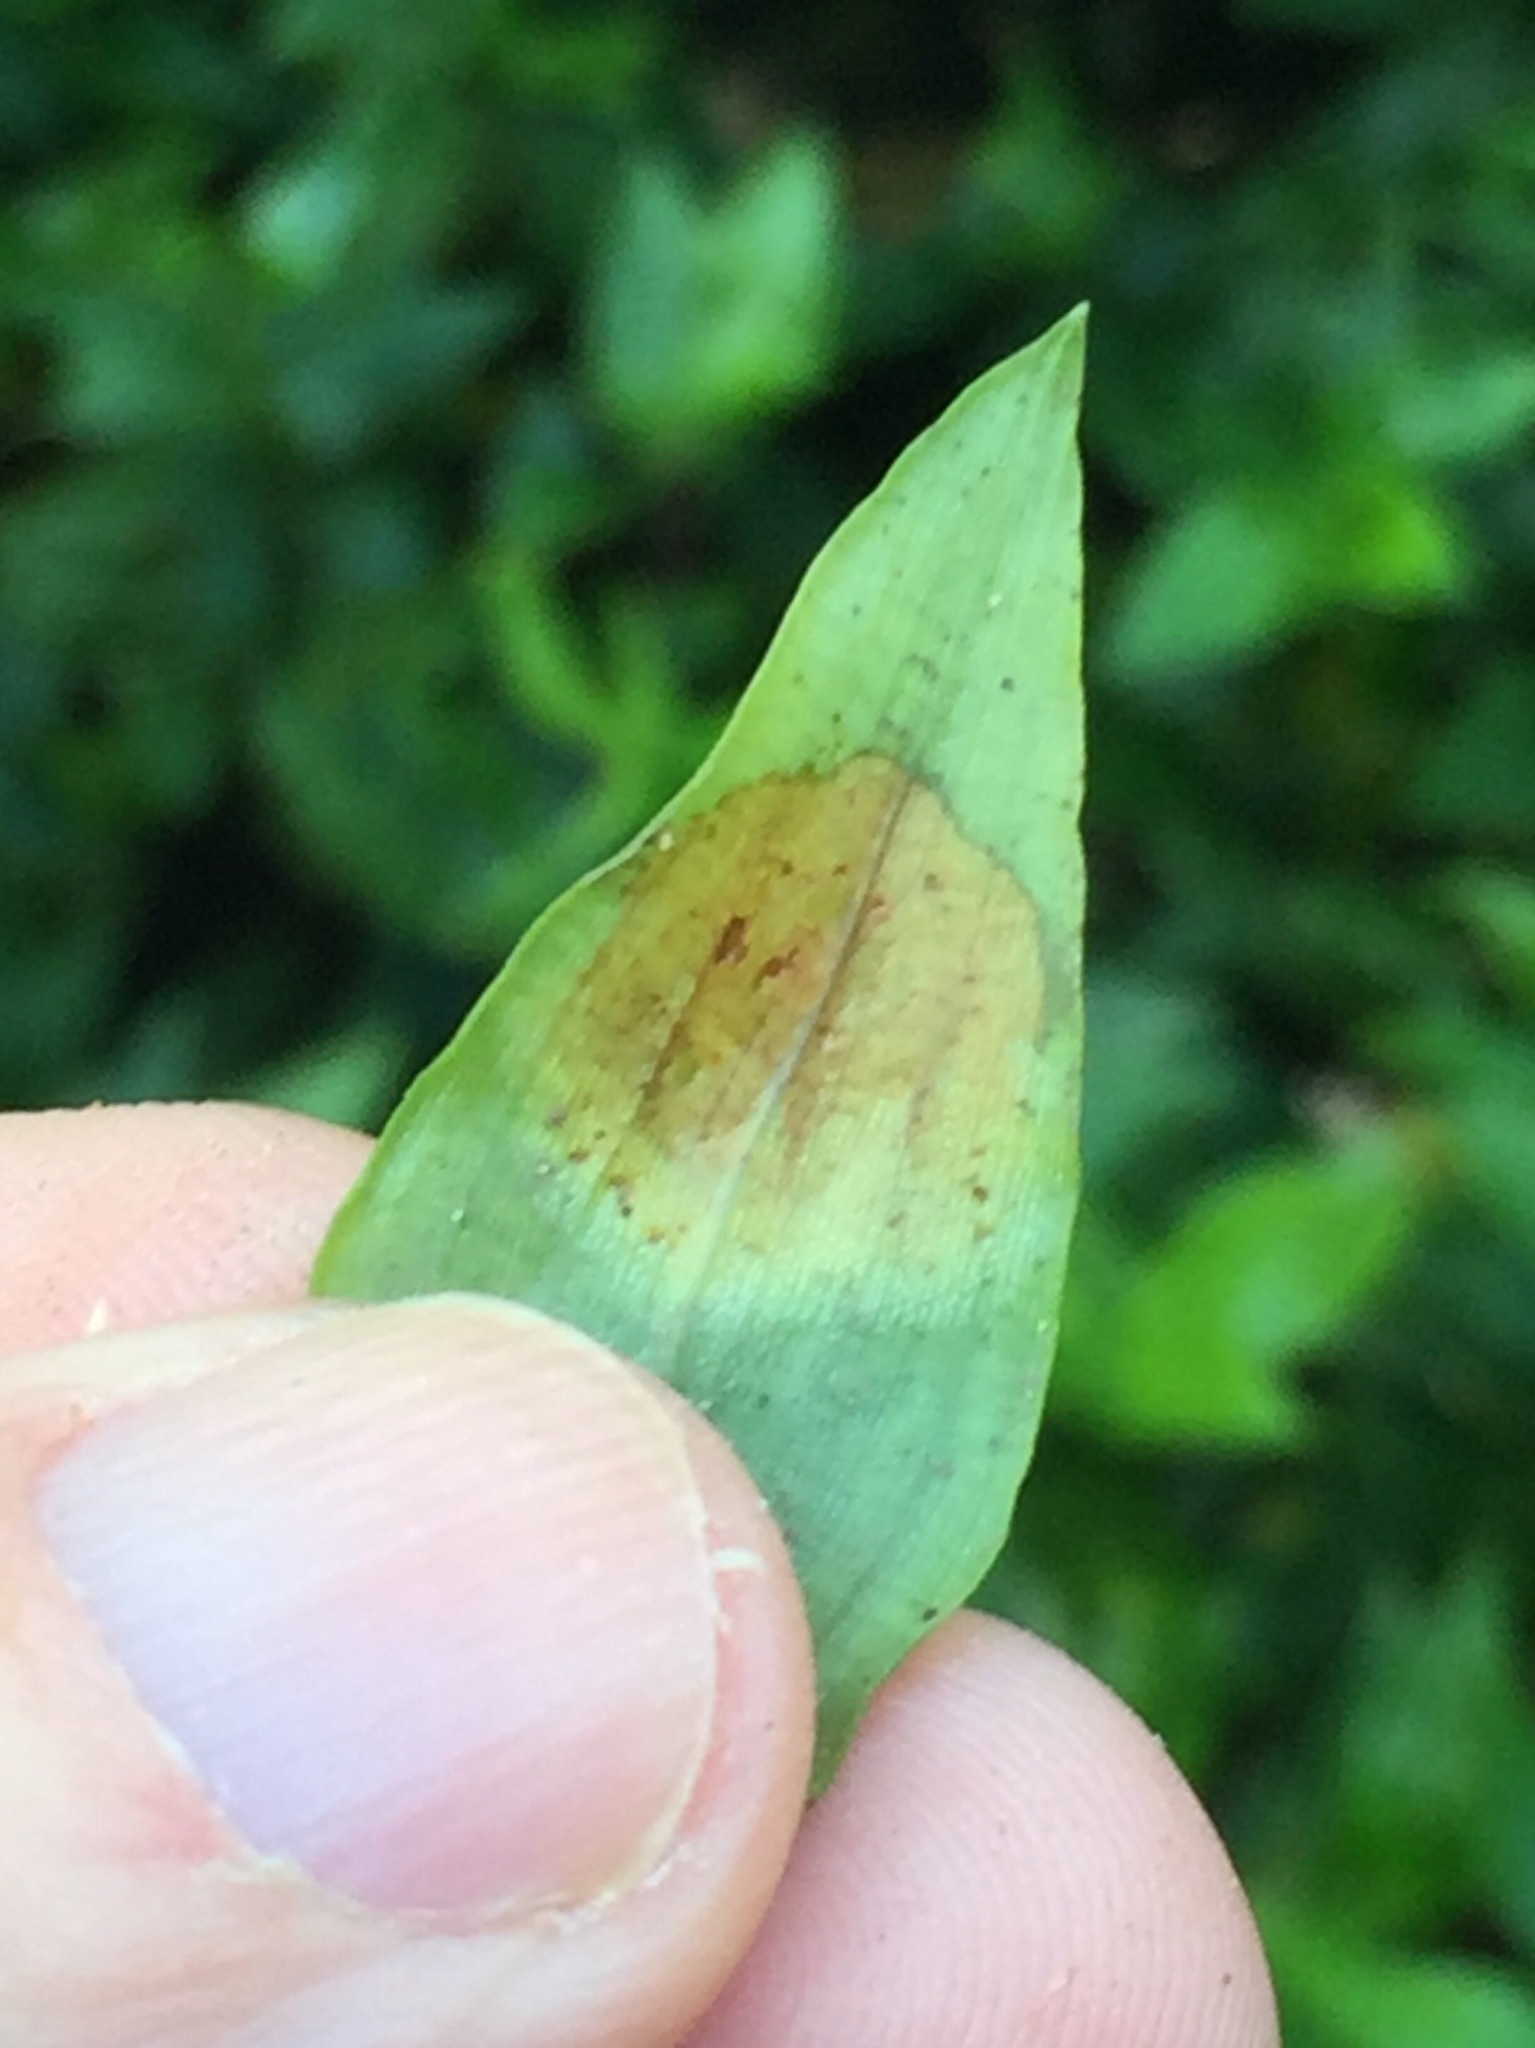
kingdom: Fungi
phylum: Basidiomycota
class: Exobasidiomycetes
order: Exobasidiales
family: Brachybasidiaceae
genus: Kordyana
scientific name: Kordyana brasiliensis
